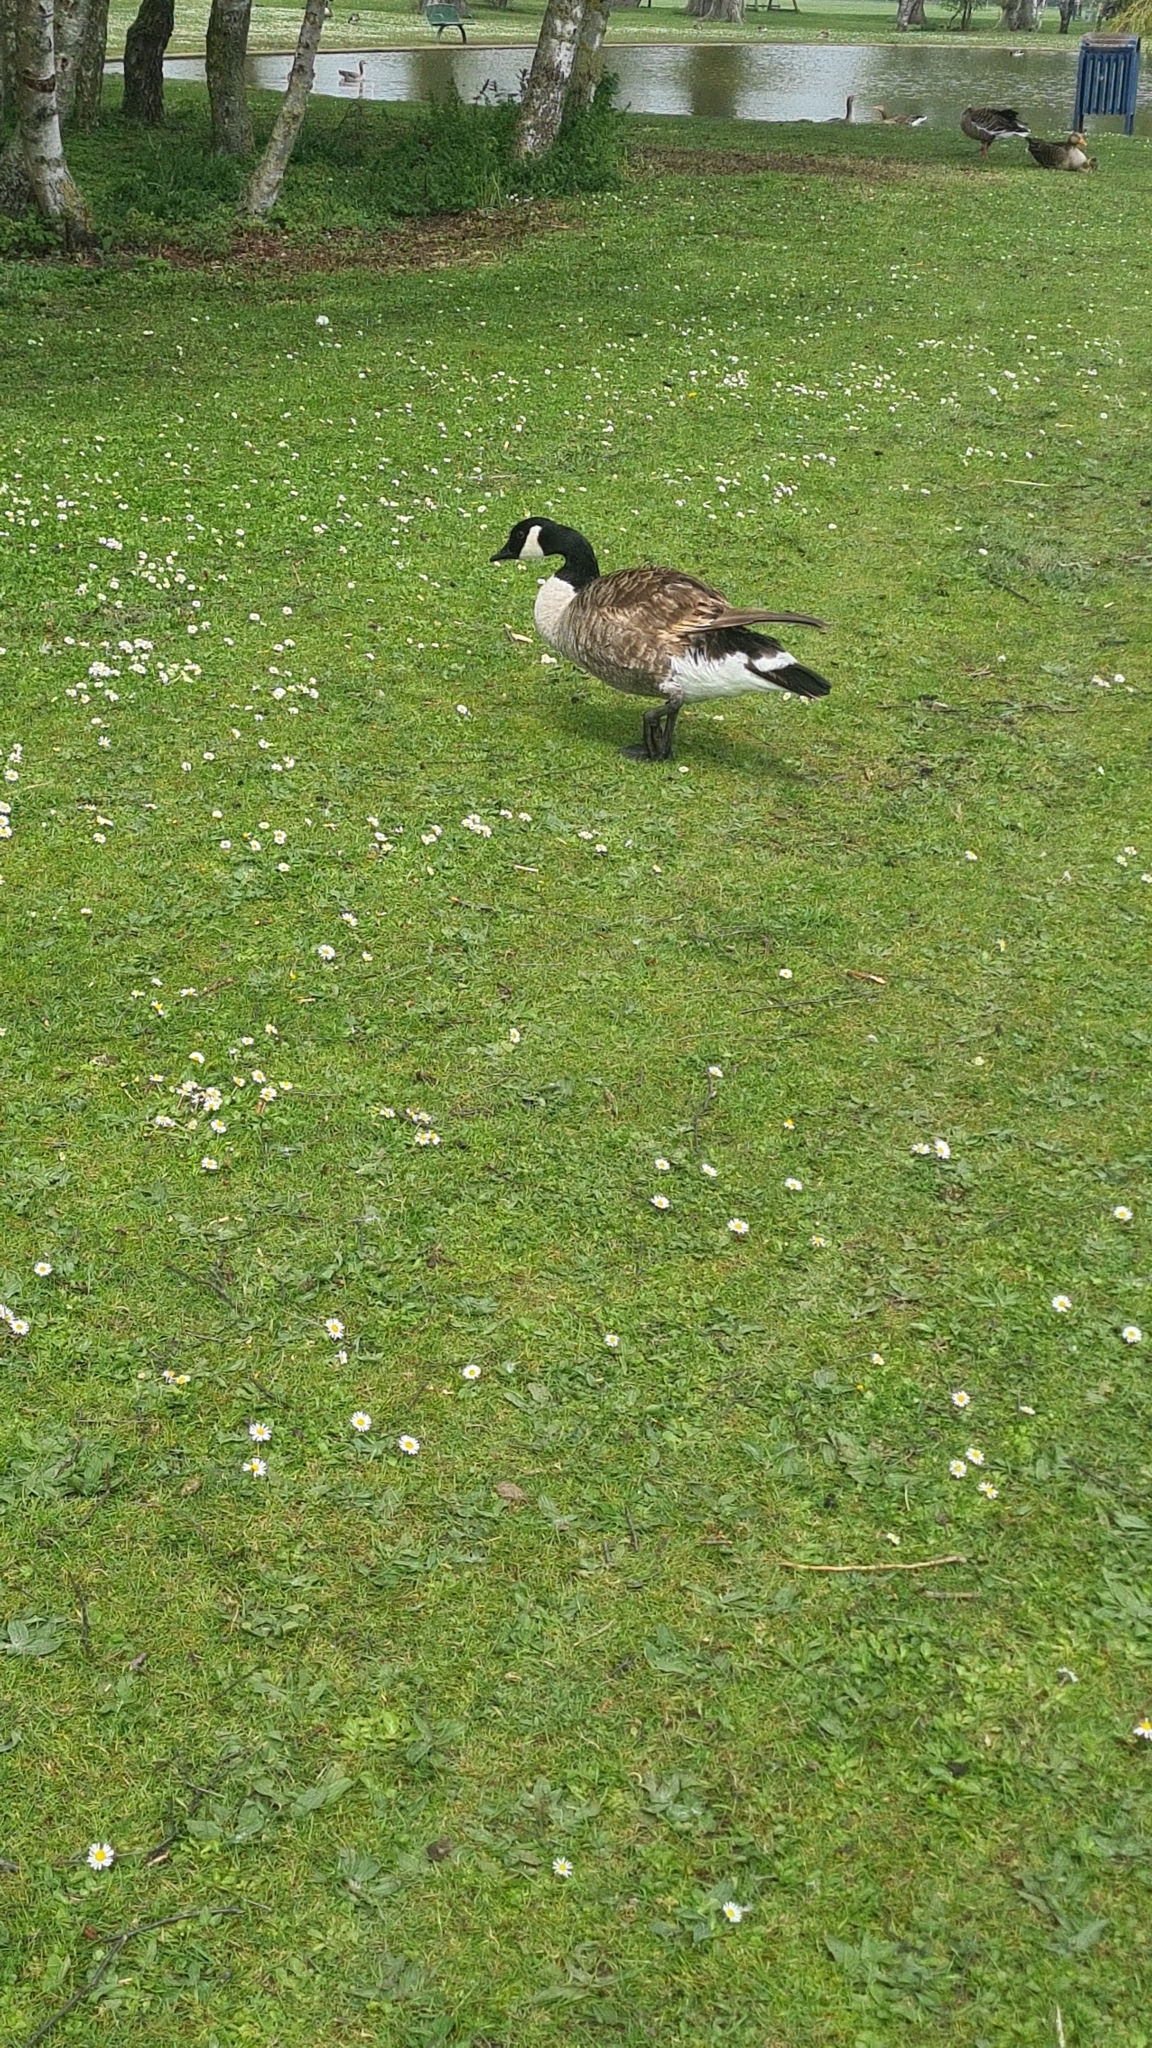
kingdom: Animalia
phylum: Chordata
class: Aves
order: Anseriformes
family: Anatidae
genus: Branta
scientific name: Branta canadensis
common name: Canada goose
